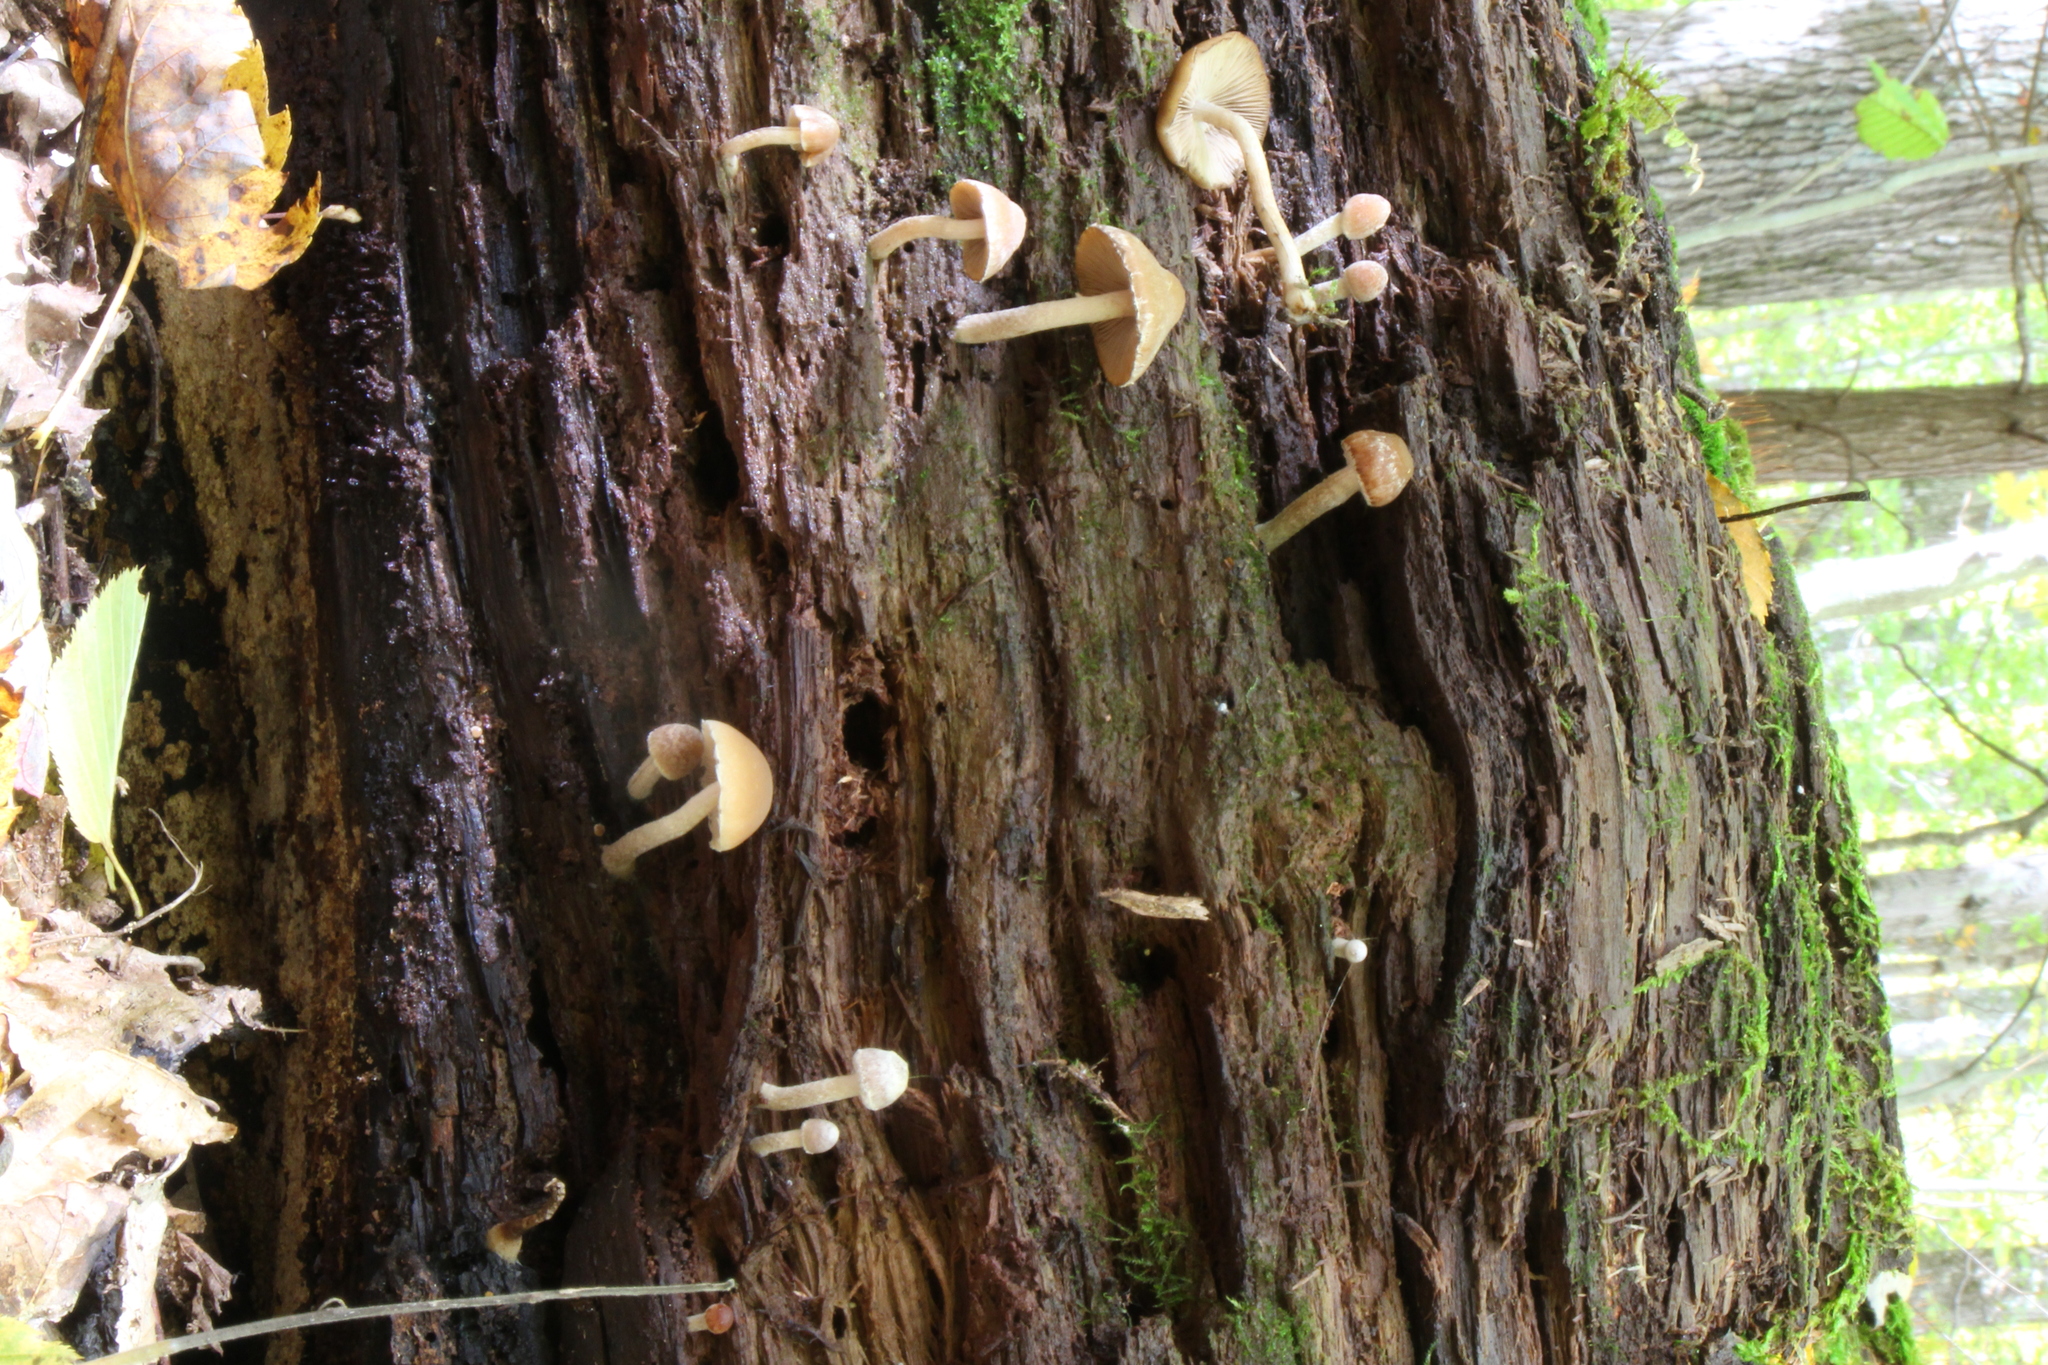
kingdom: Fungi
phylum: Basidiomycota
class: Agaricomycetes
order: Agaricales
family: Psathyrellaceae
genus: Psathyrella
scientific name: Psathyrella piluliformis
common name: Common stump brittlestem
